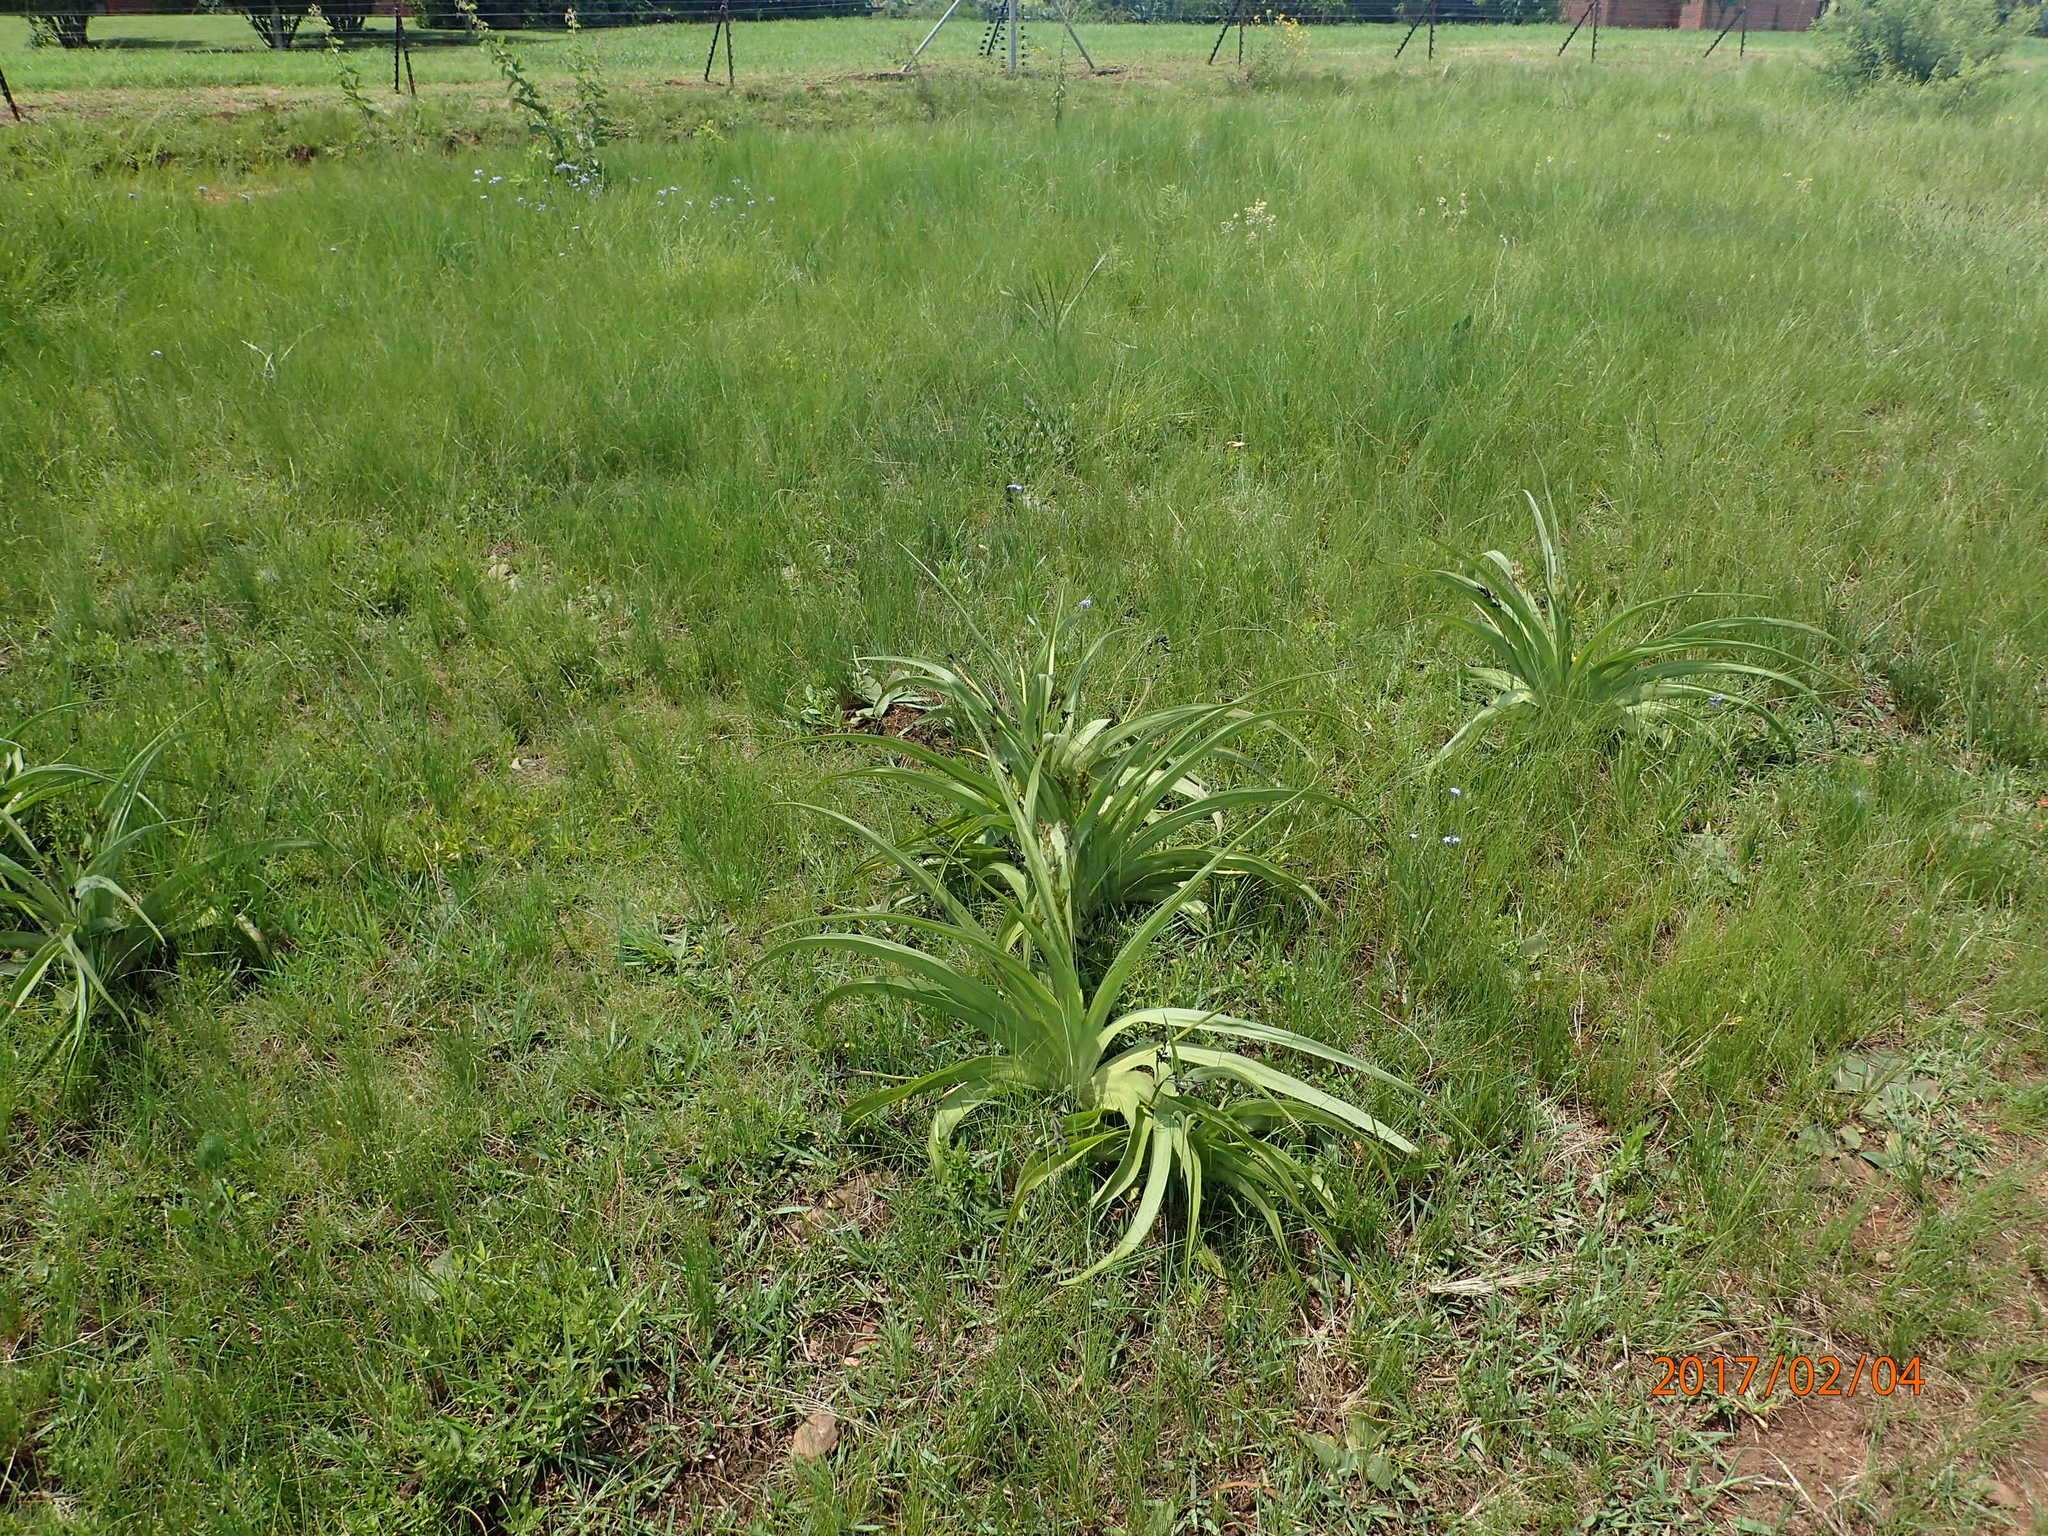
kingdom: Plantae
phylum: Tracheophyta
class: Liliopsida
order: Asparagales
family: Hypoxidaceae
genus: Hypoxis
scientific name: Hypoxis hemerocallidea
